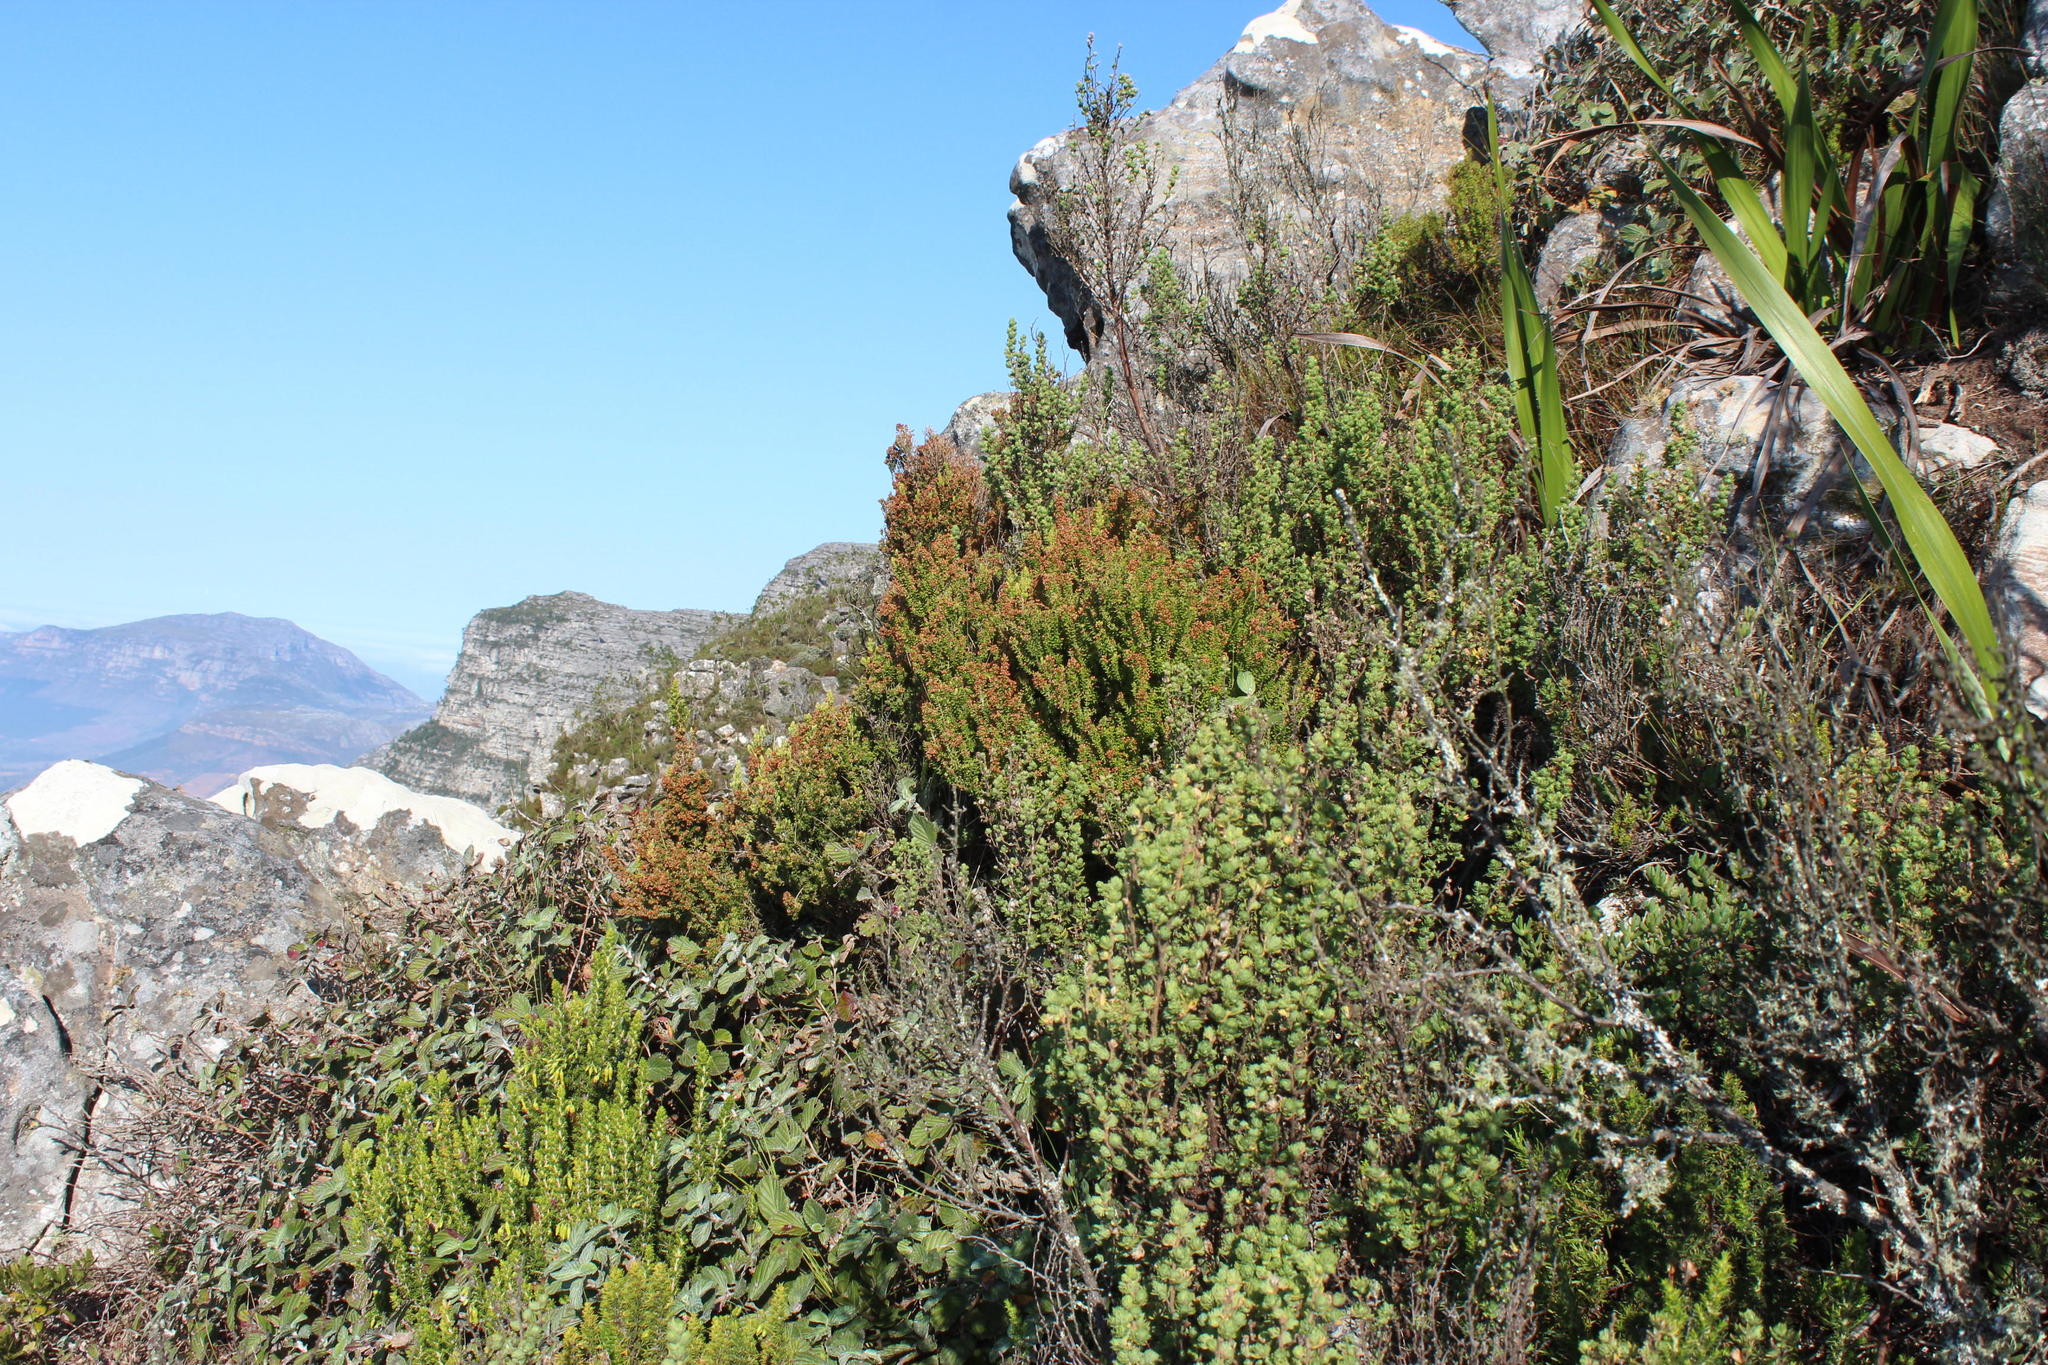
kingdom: Plantae
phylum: Tracheophyta
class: Magnoliopsida
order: Ericales
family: Ericaceae
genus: Erica
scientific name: Erica hispidula
